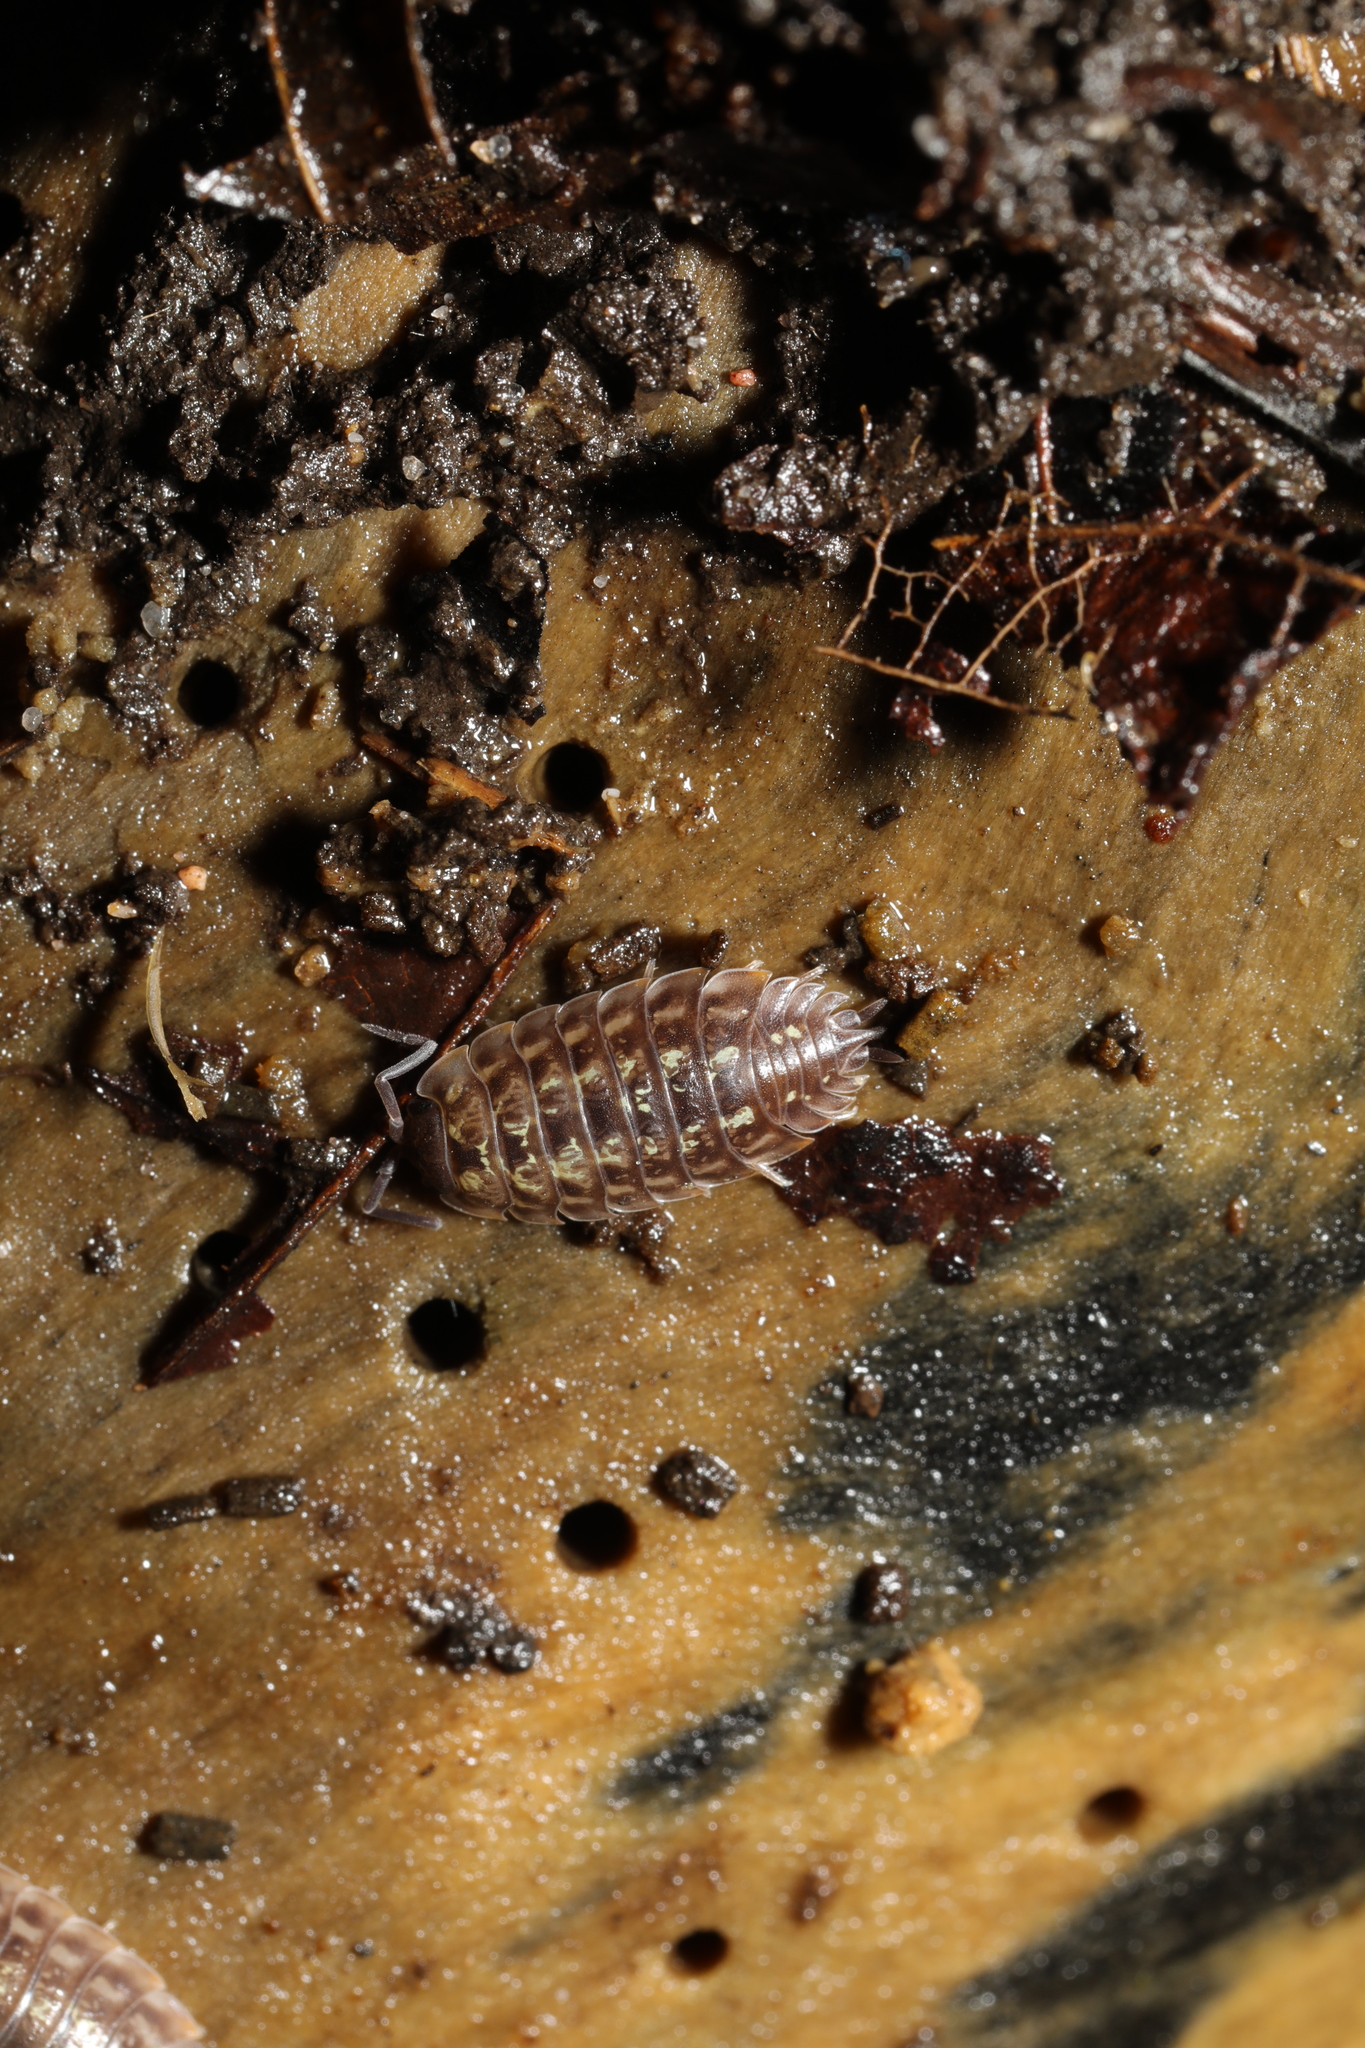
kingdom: Animalia
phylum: Arthropoda
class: Malacostraca
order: Isopoda
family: Oniscidae
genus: Oniscus
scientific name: Oniscus asellus
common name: Common shiny woodlouse
